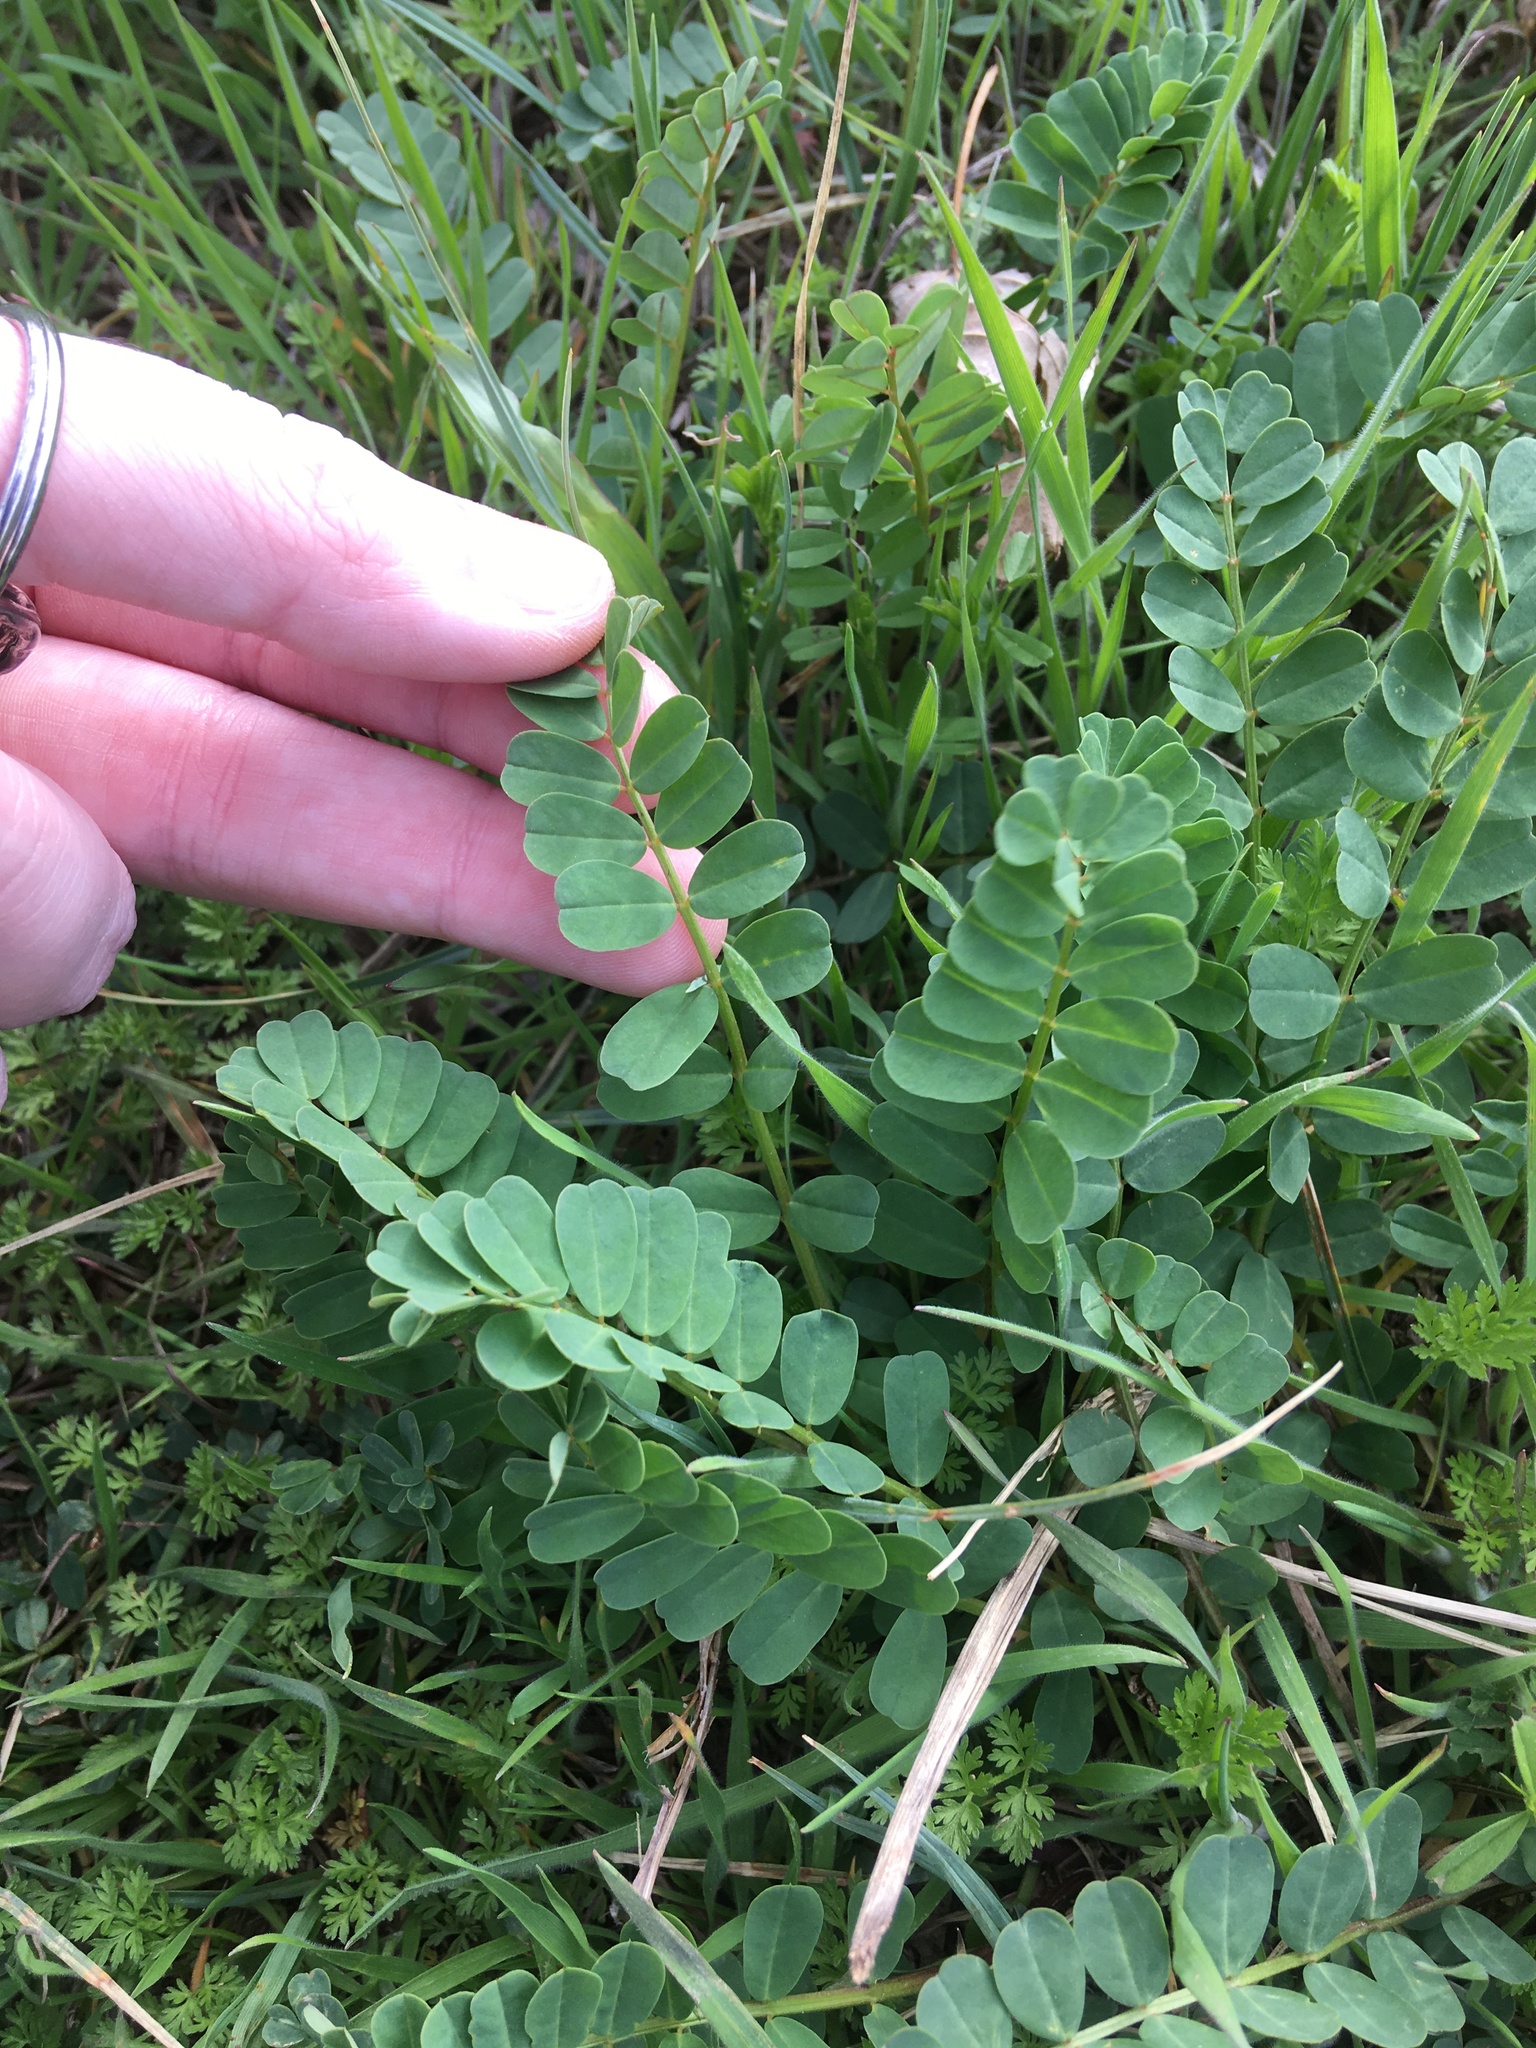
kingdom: Plantae
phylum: Tracheophyta
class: Magnoliopsida
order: Fabales
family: Fabaceae
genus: Coronilla
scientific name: Coronilla varia
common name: Crownvetch
